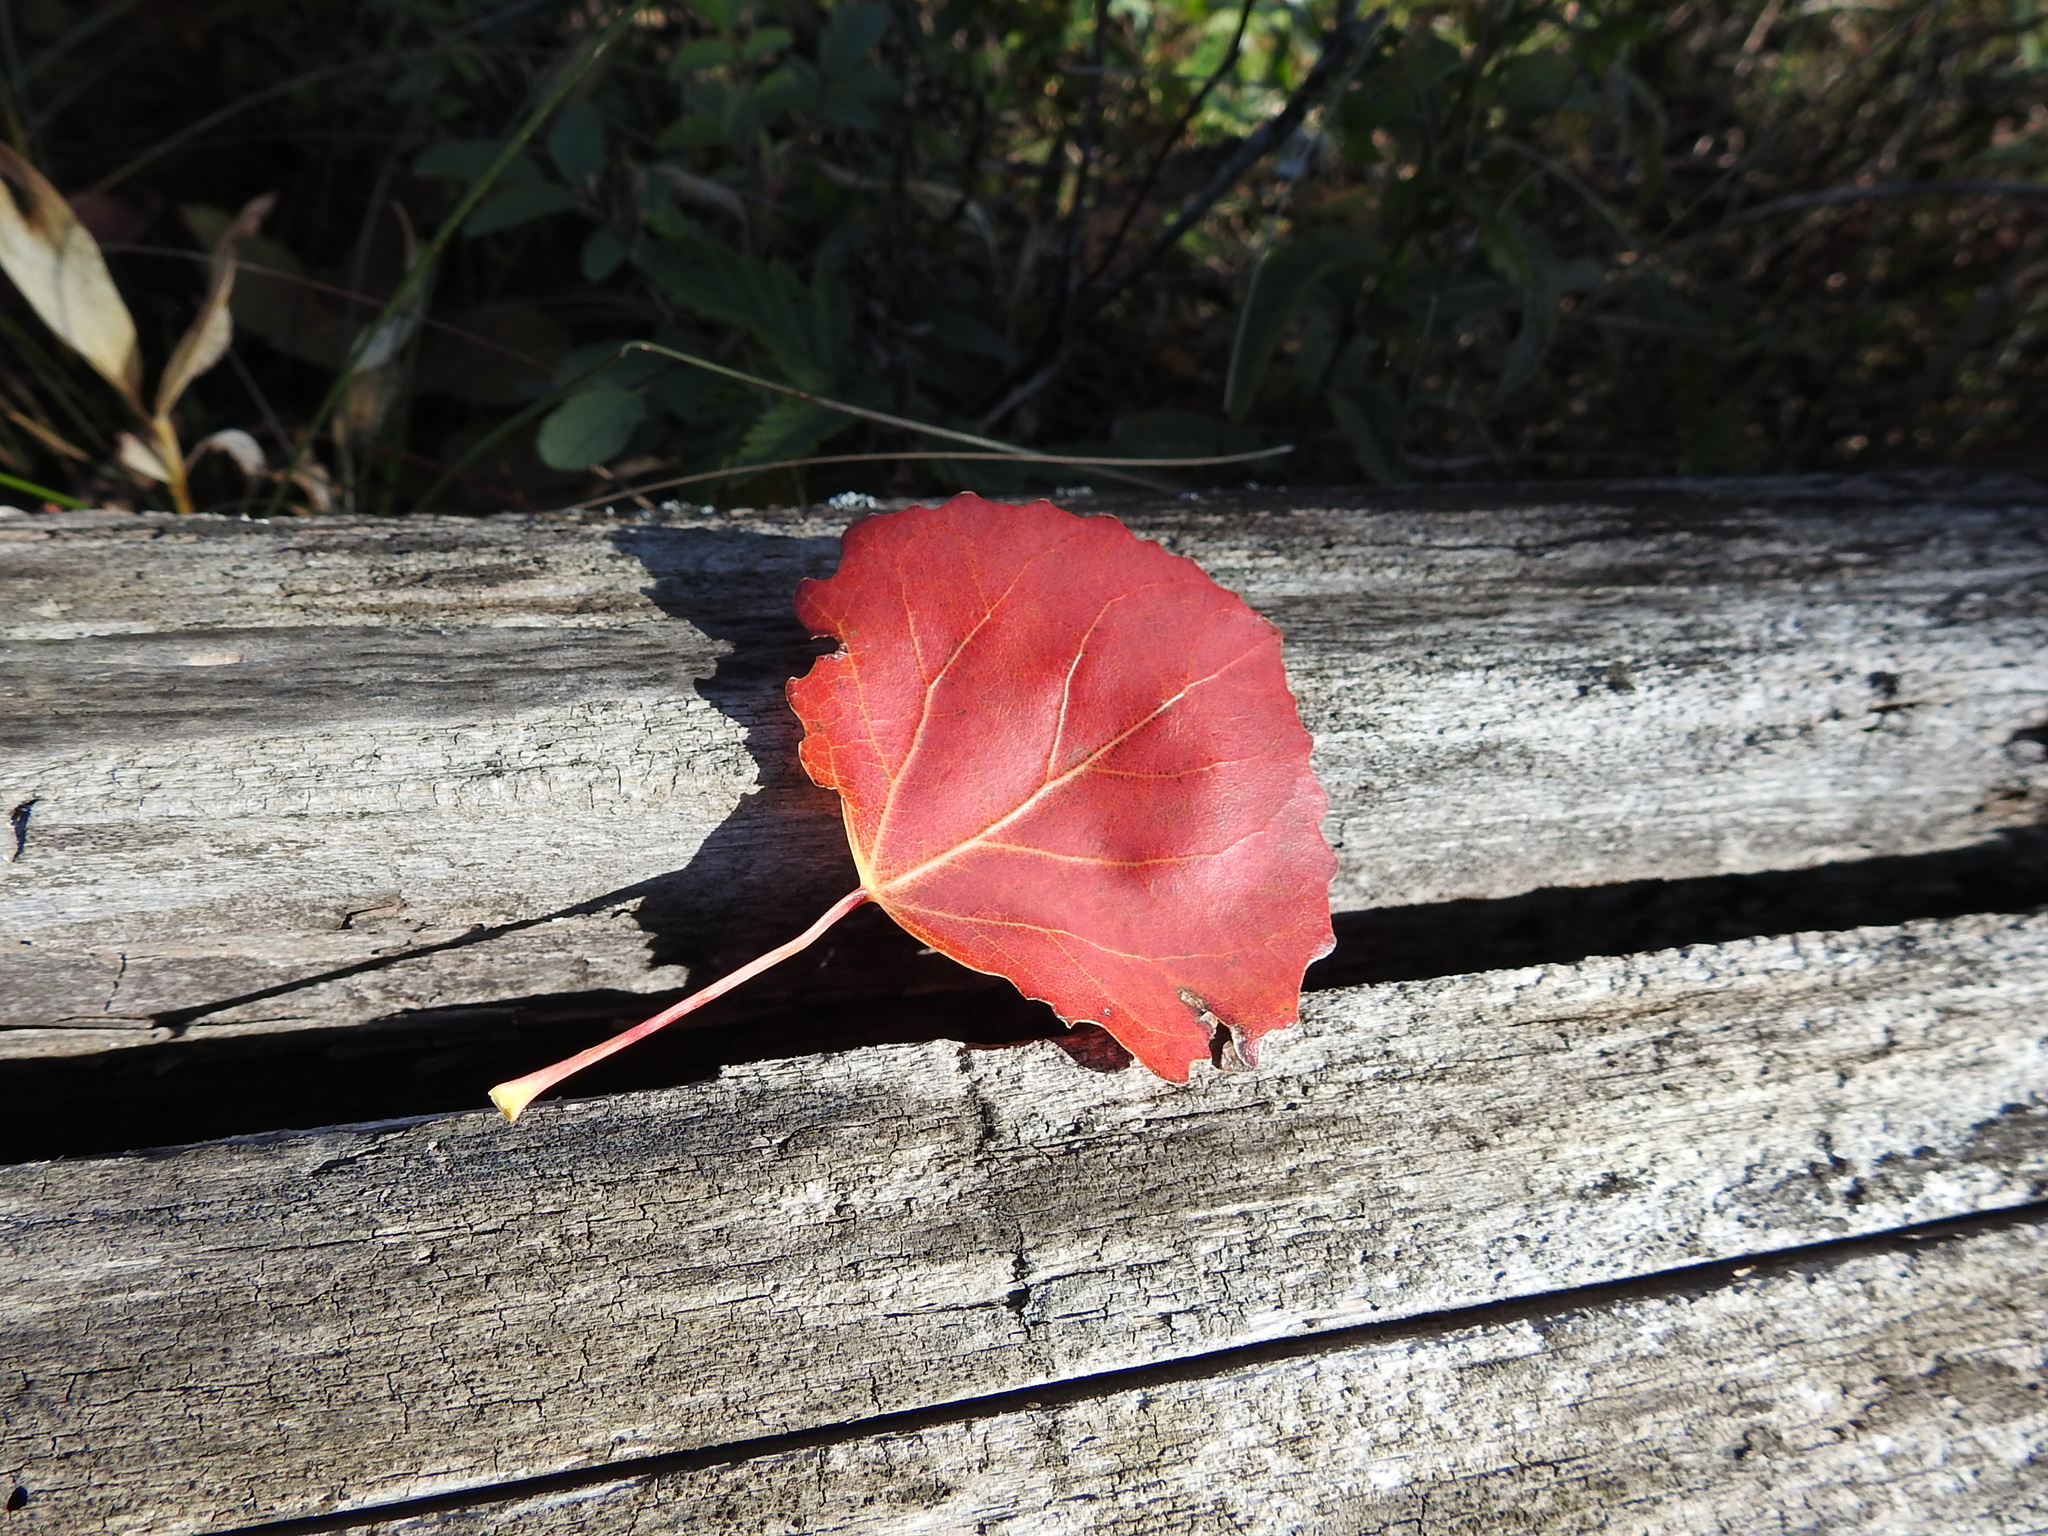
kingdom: Plantae
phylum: Tracheophyta
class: Magnoliopsida
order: Malpighiales
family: Salicaceae
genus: Populus
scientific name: Populus tremula
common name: European aspen
